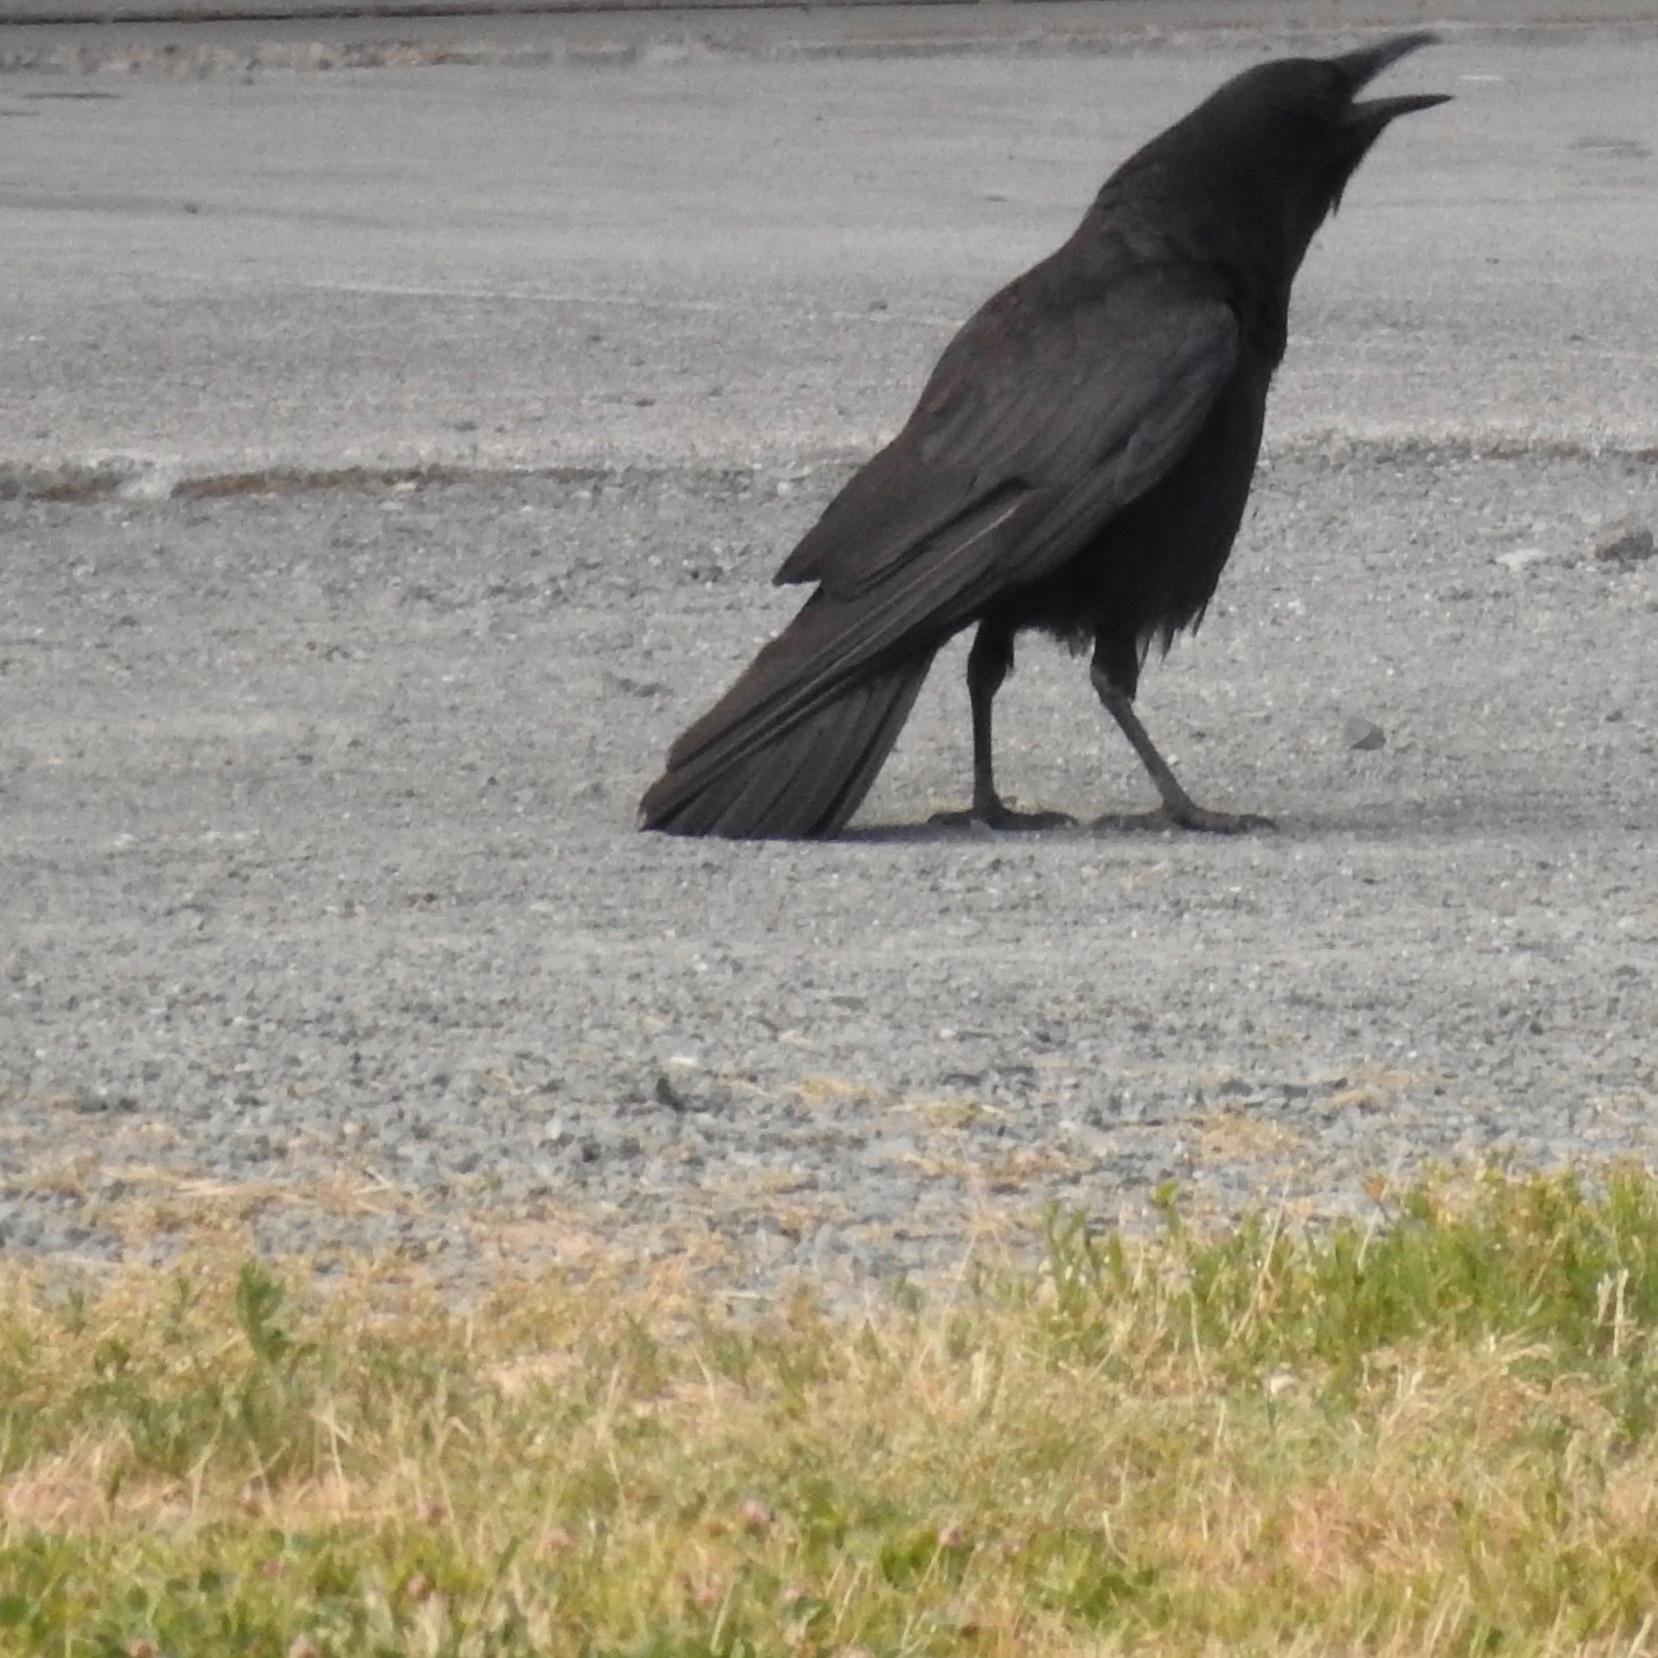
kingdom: Animalia
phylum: Chordata
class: Aves
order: Passeriformes
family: Corvidae
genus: Corvus
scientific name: Corvus brachyrhynchos
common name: American crow
